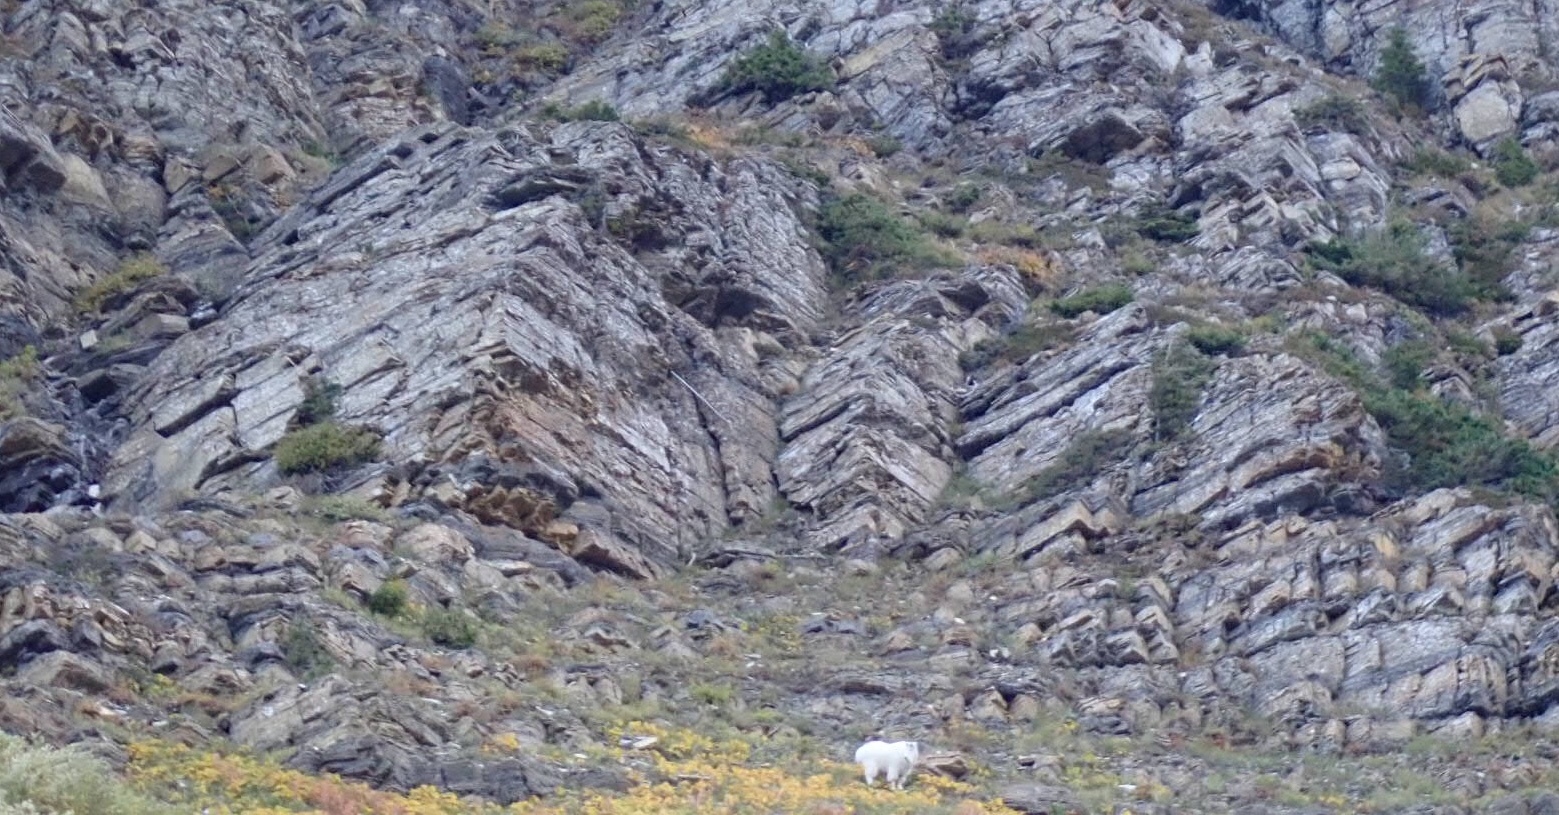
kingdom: Animalia
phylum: Chordata
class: Mammalia
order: Artiodactyla
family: Bovidae
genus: Oreamnos
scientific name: Oreamnos americanus
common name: Mountain goat
